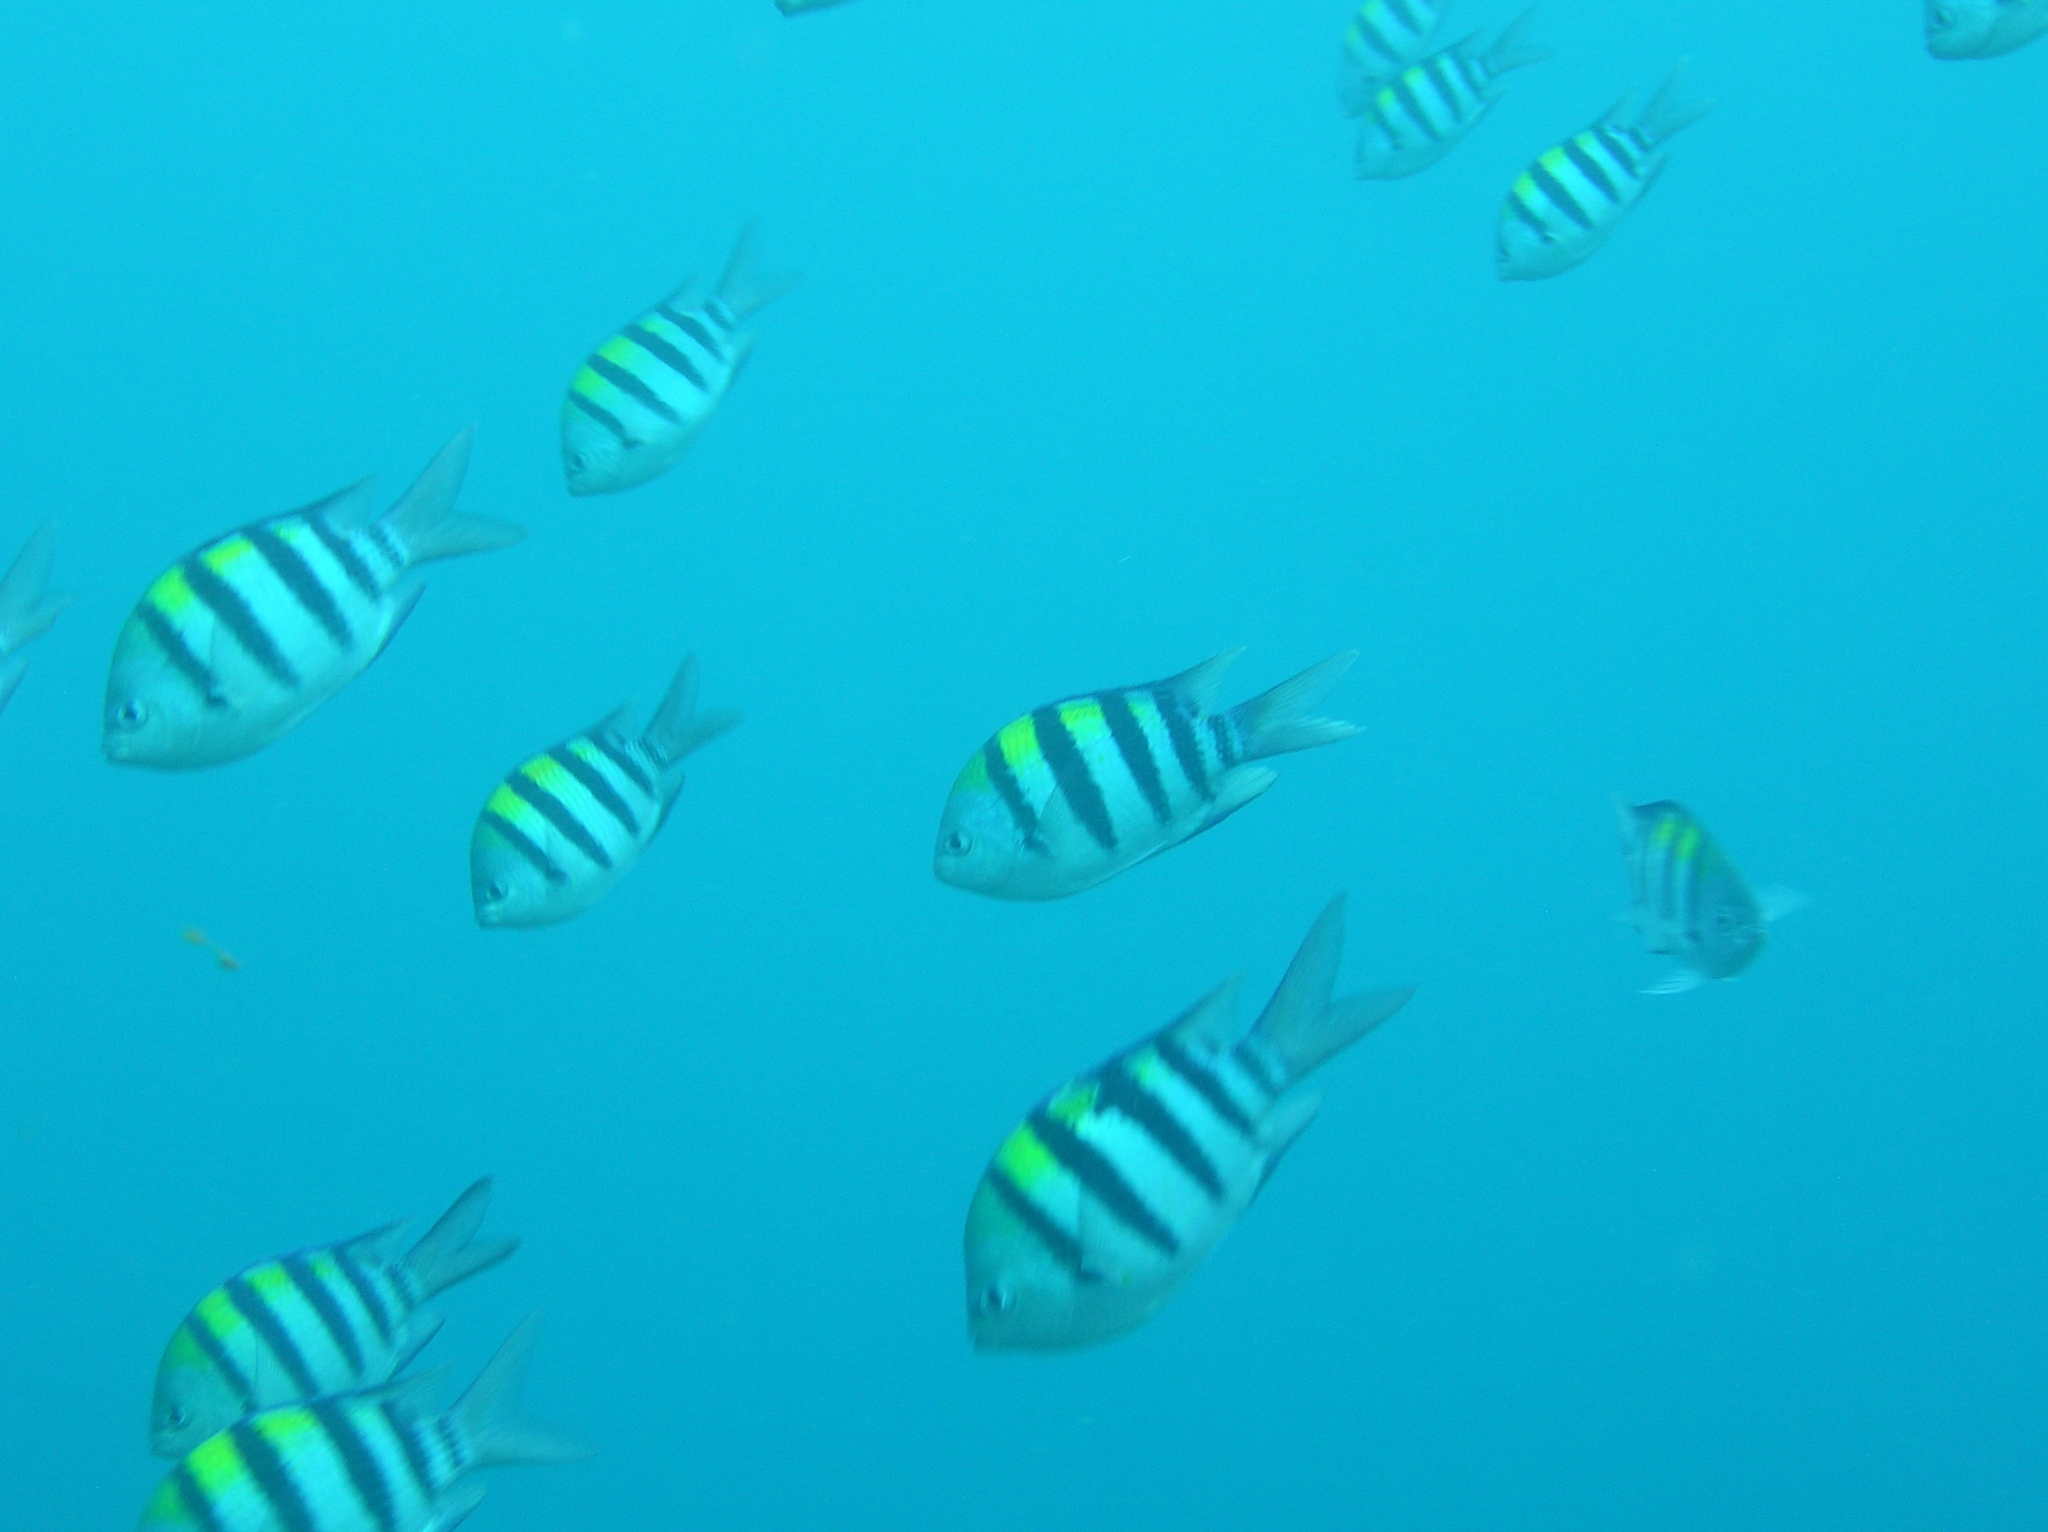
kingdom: Animalia
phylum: Chordata
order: Perciformes
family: Pomacentridae
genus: Abudefduf
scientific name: Abudefduf vaigiensis
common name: Indo-pacific sergeant
